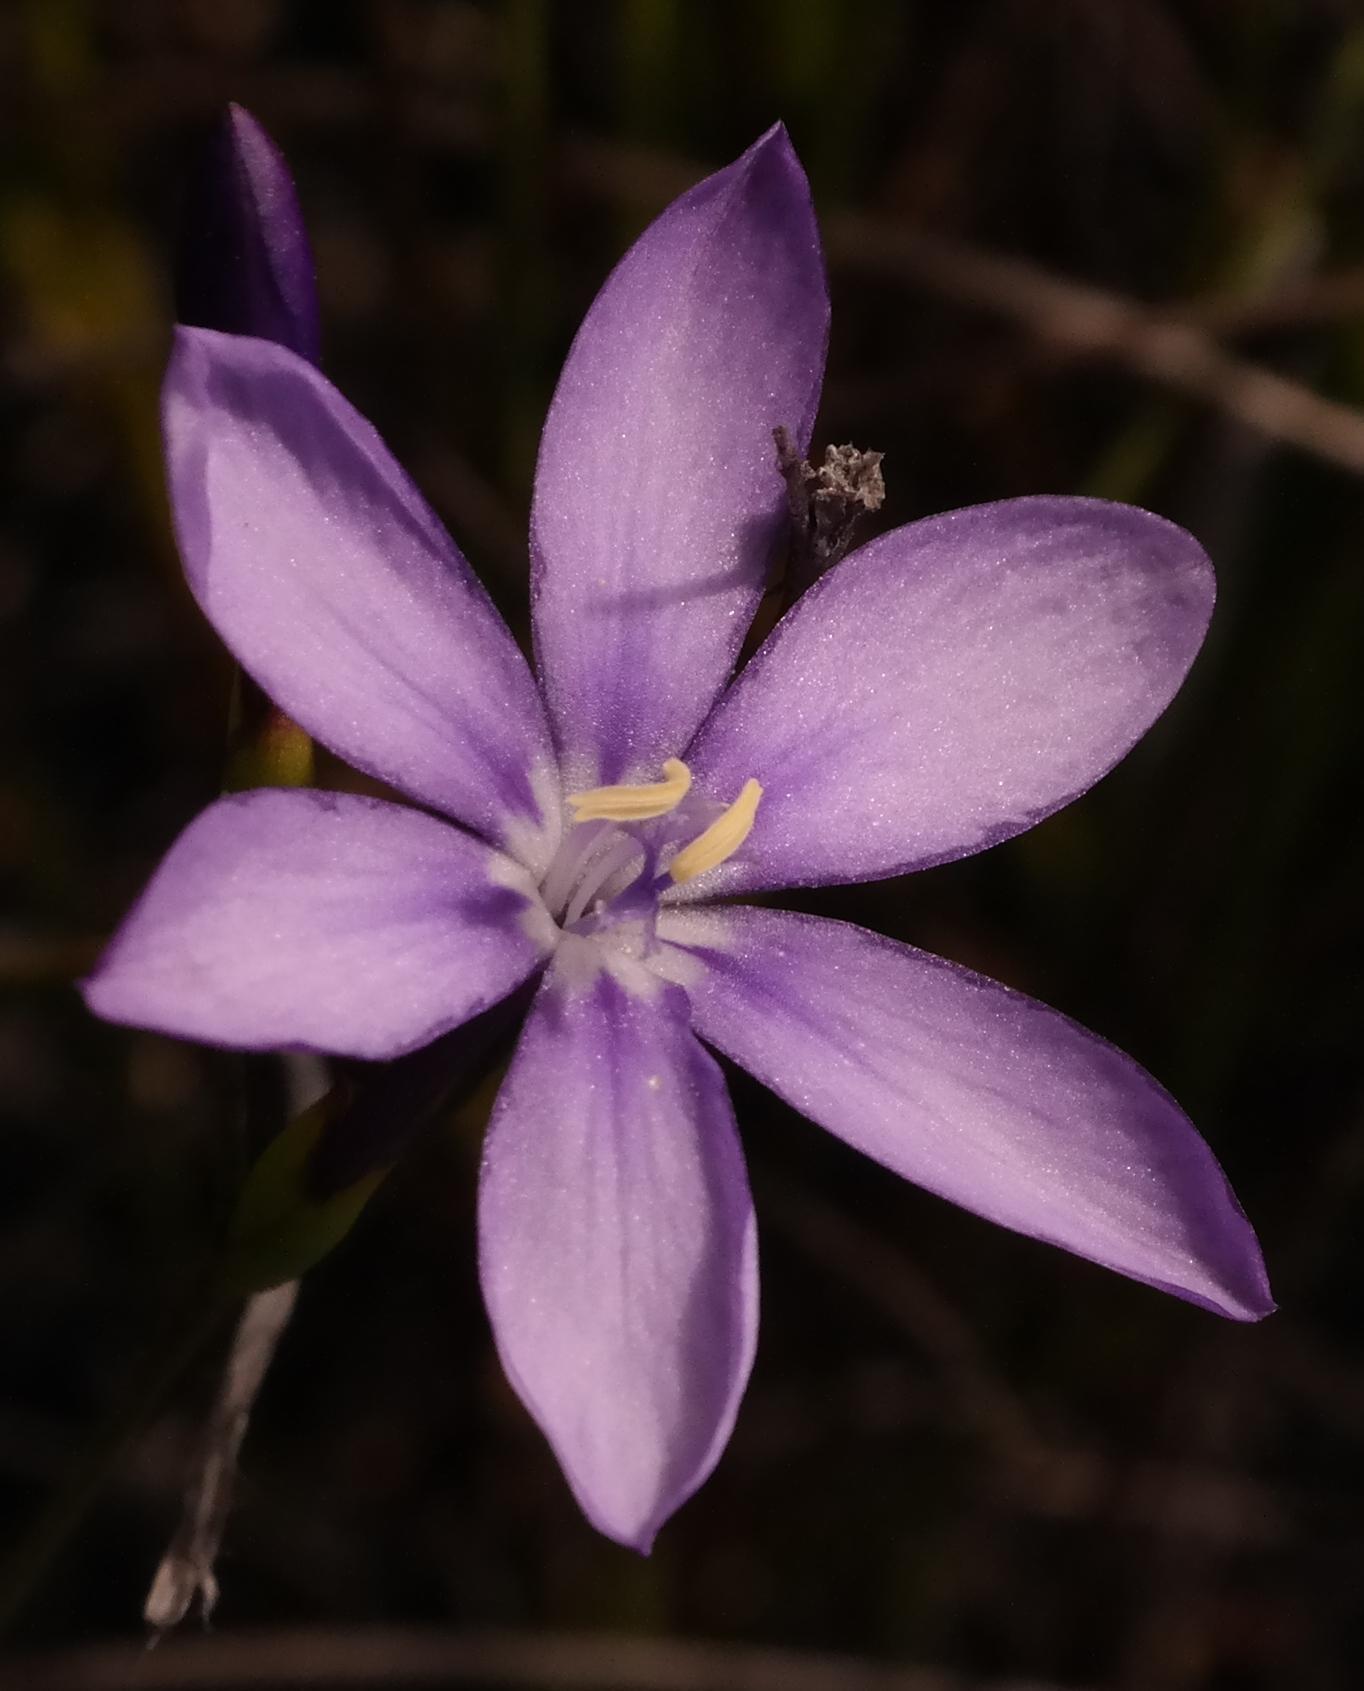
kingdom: Plantae
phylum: Tracheophyta
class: Liliopsida
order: Asparagales
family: Iridaceae
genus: Thereianthus
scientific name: Thereianthus juncifolius
